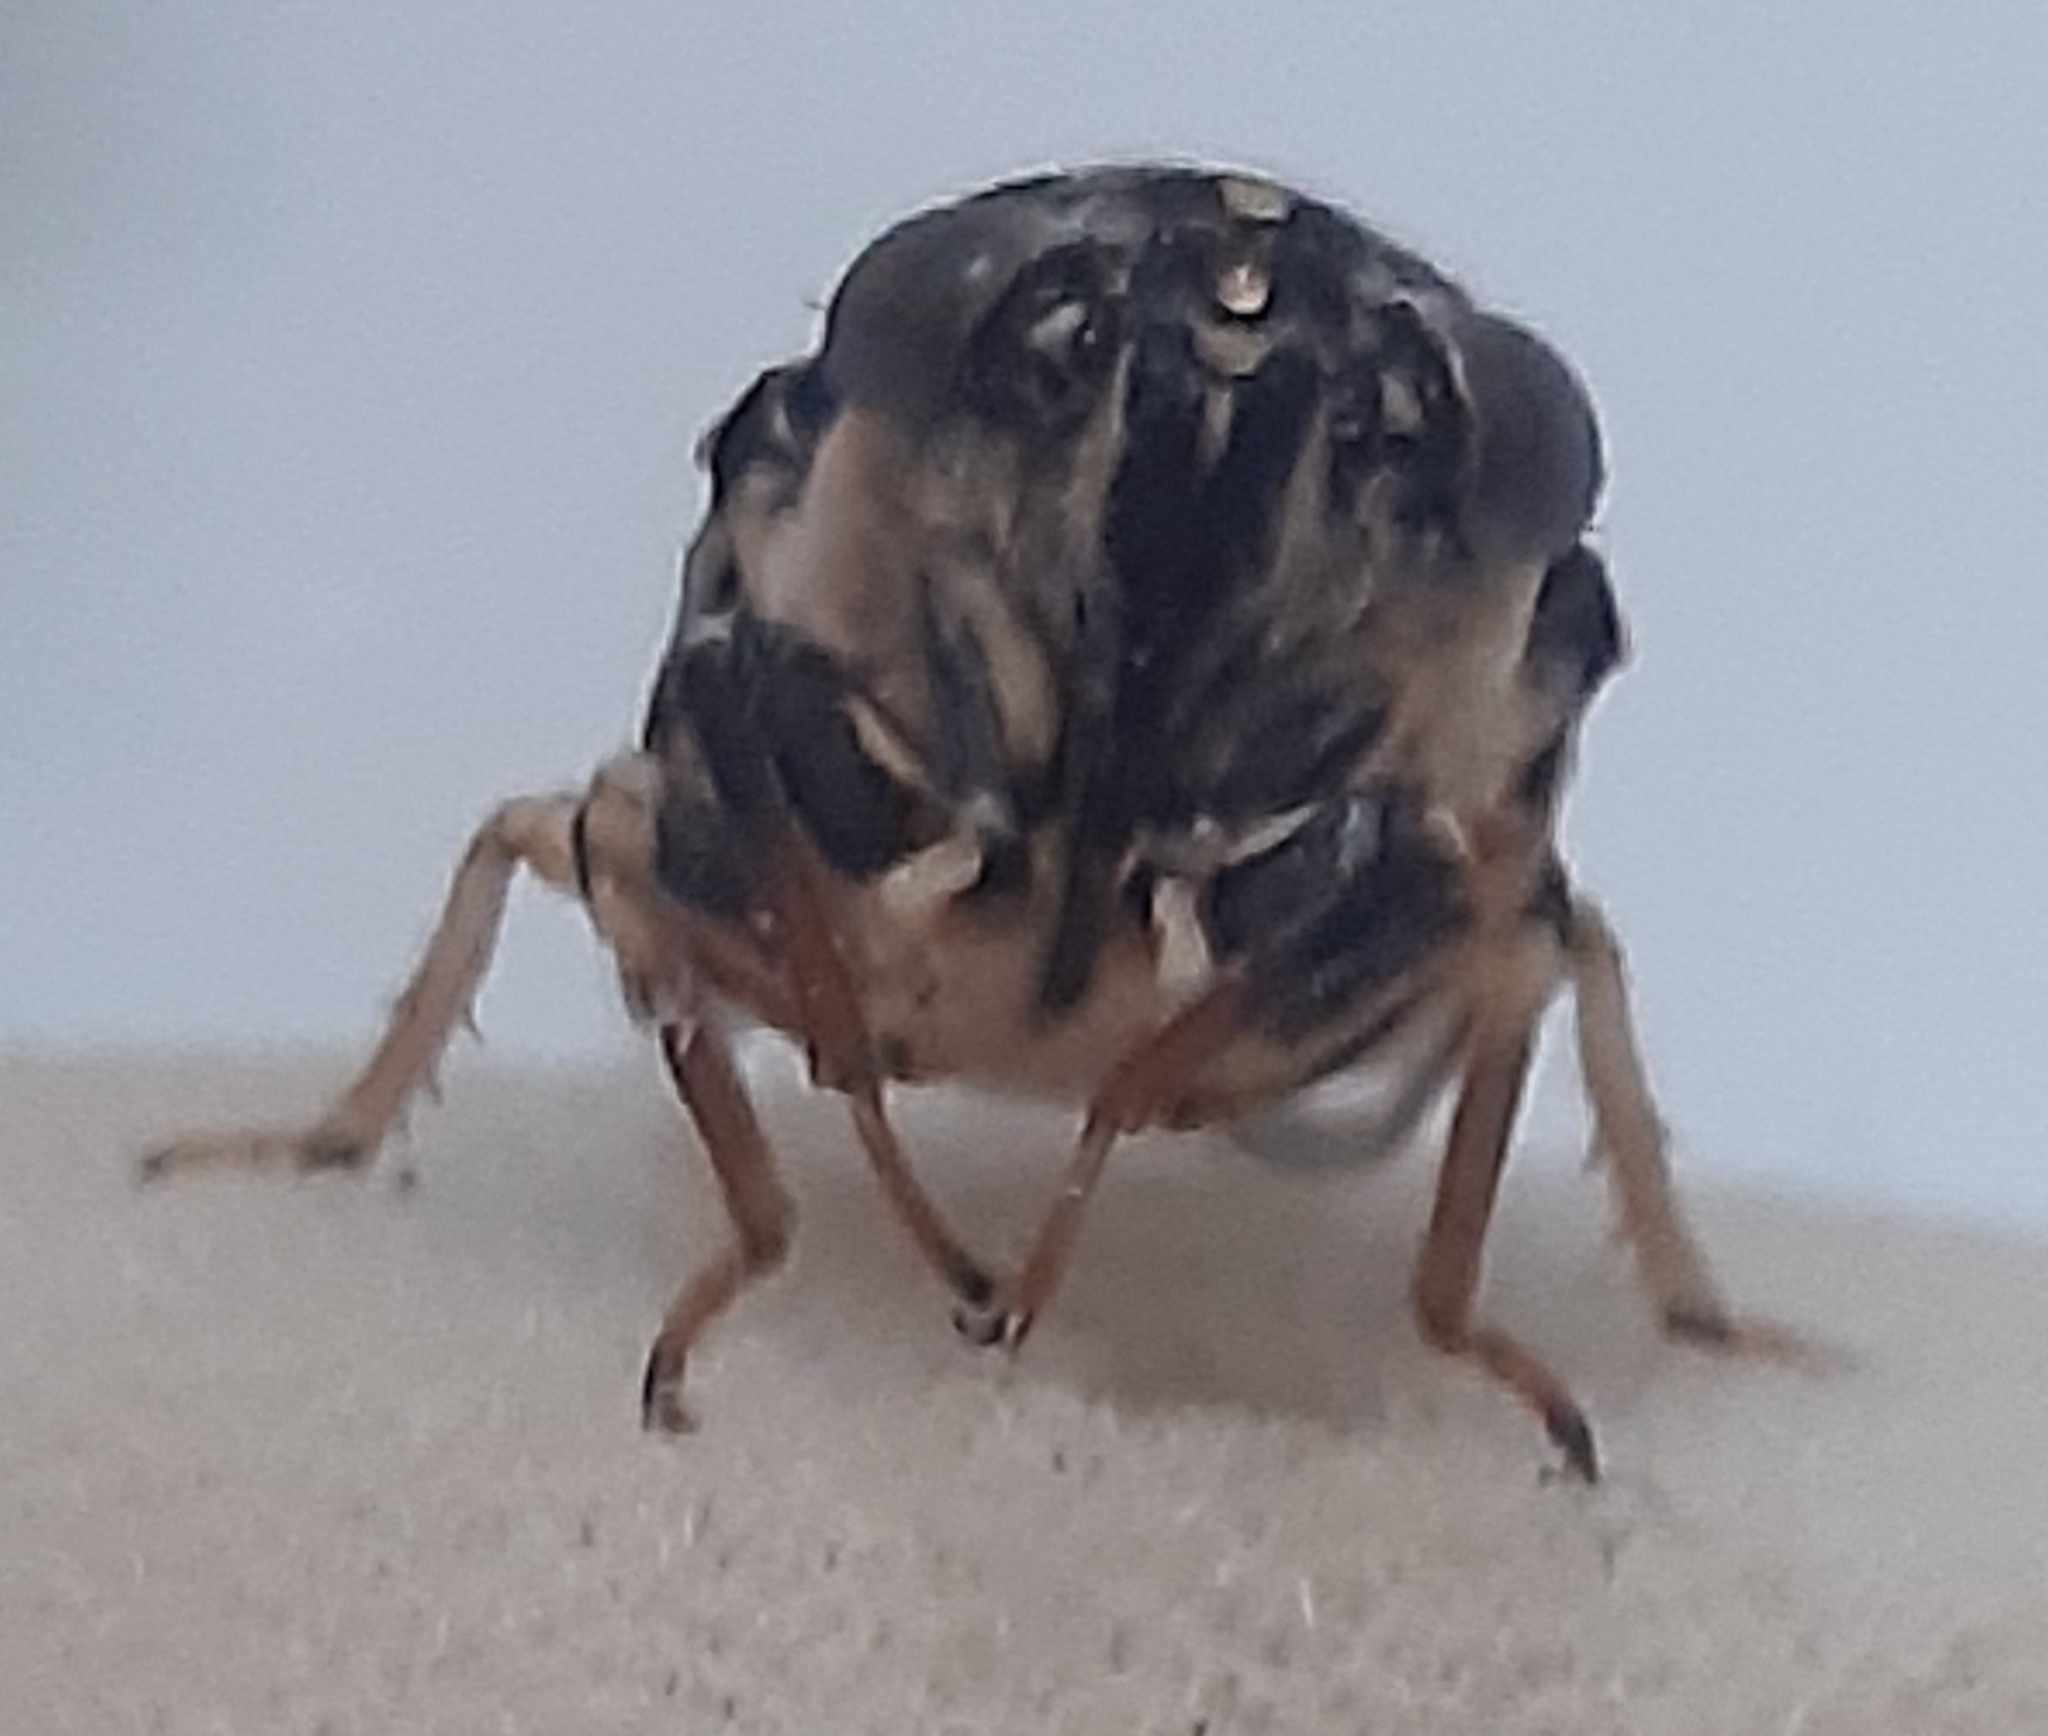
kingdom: Animalia
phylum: Arthropoda
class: Insecta
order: Hemiptera
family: Cicadidae
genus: Melampsalta
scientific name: Melampsalta musiva
